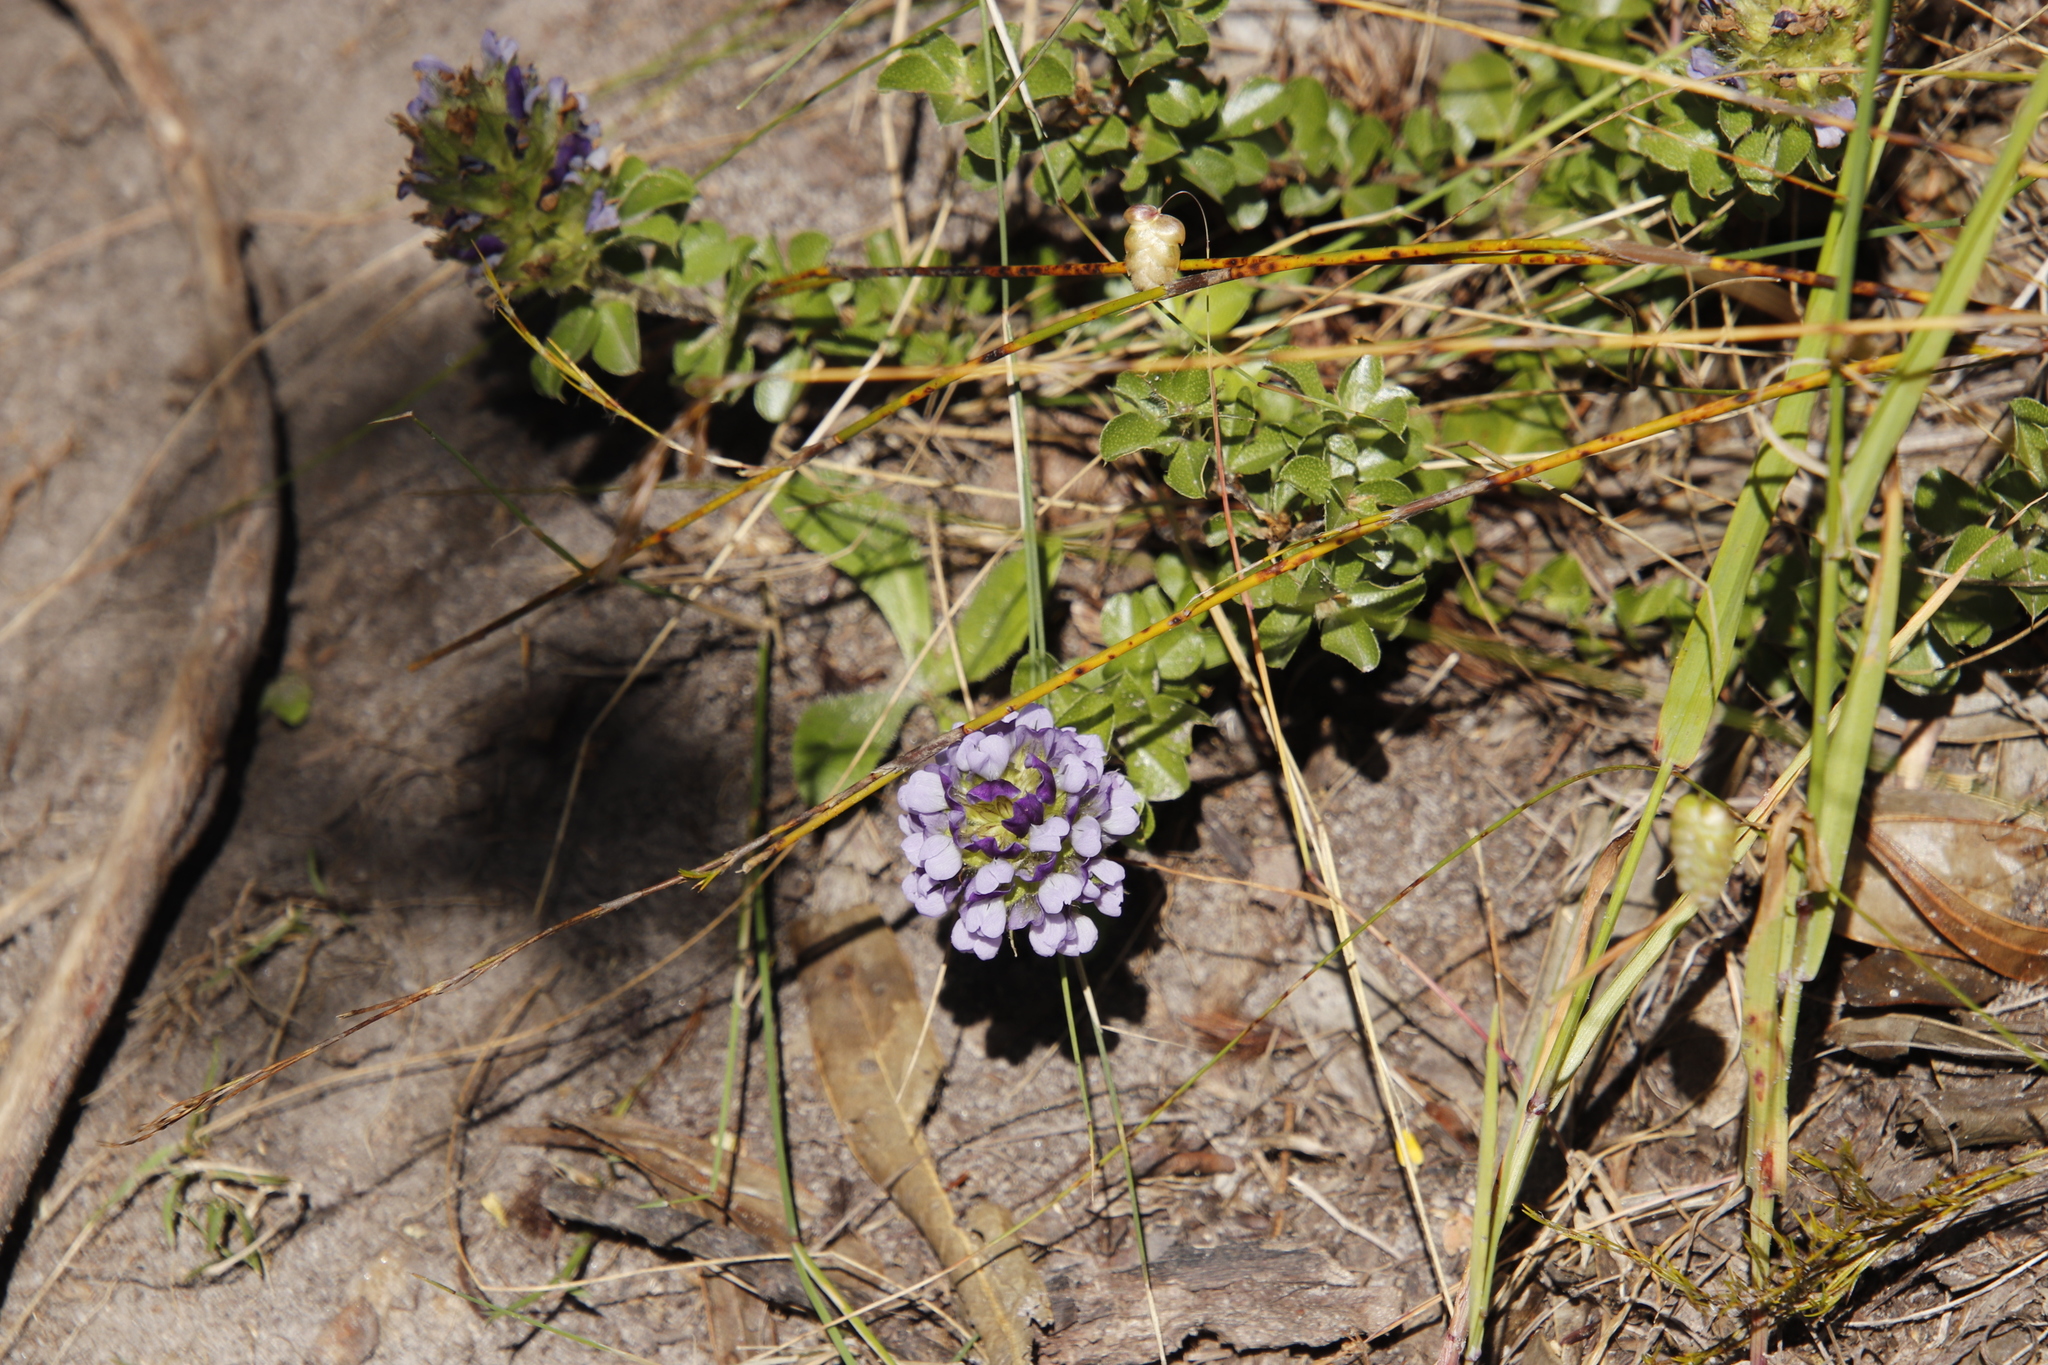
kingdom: Plantae
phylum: Tracheophyta
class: Magnoliopsida
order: Fabales
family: Fabaceae
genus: Psoralea
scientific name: Psoralea fruticans
